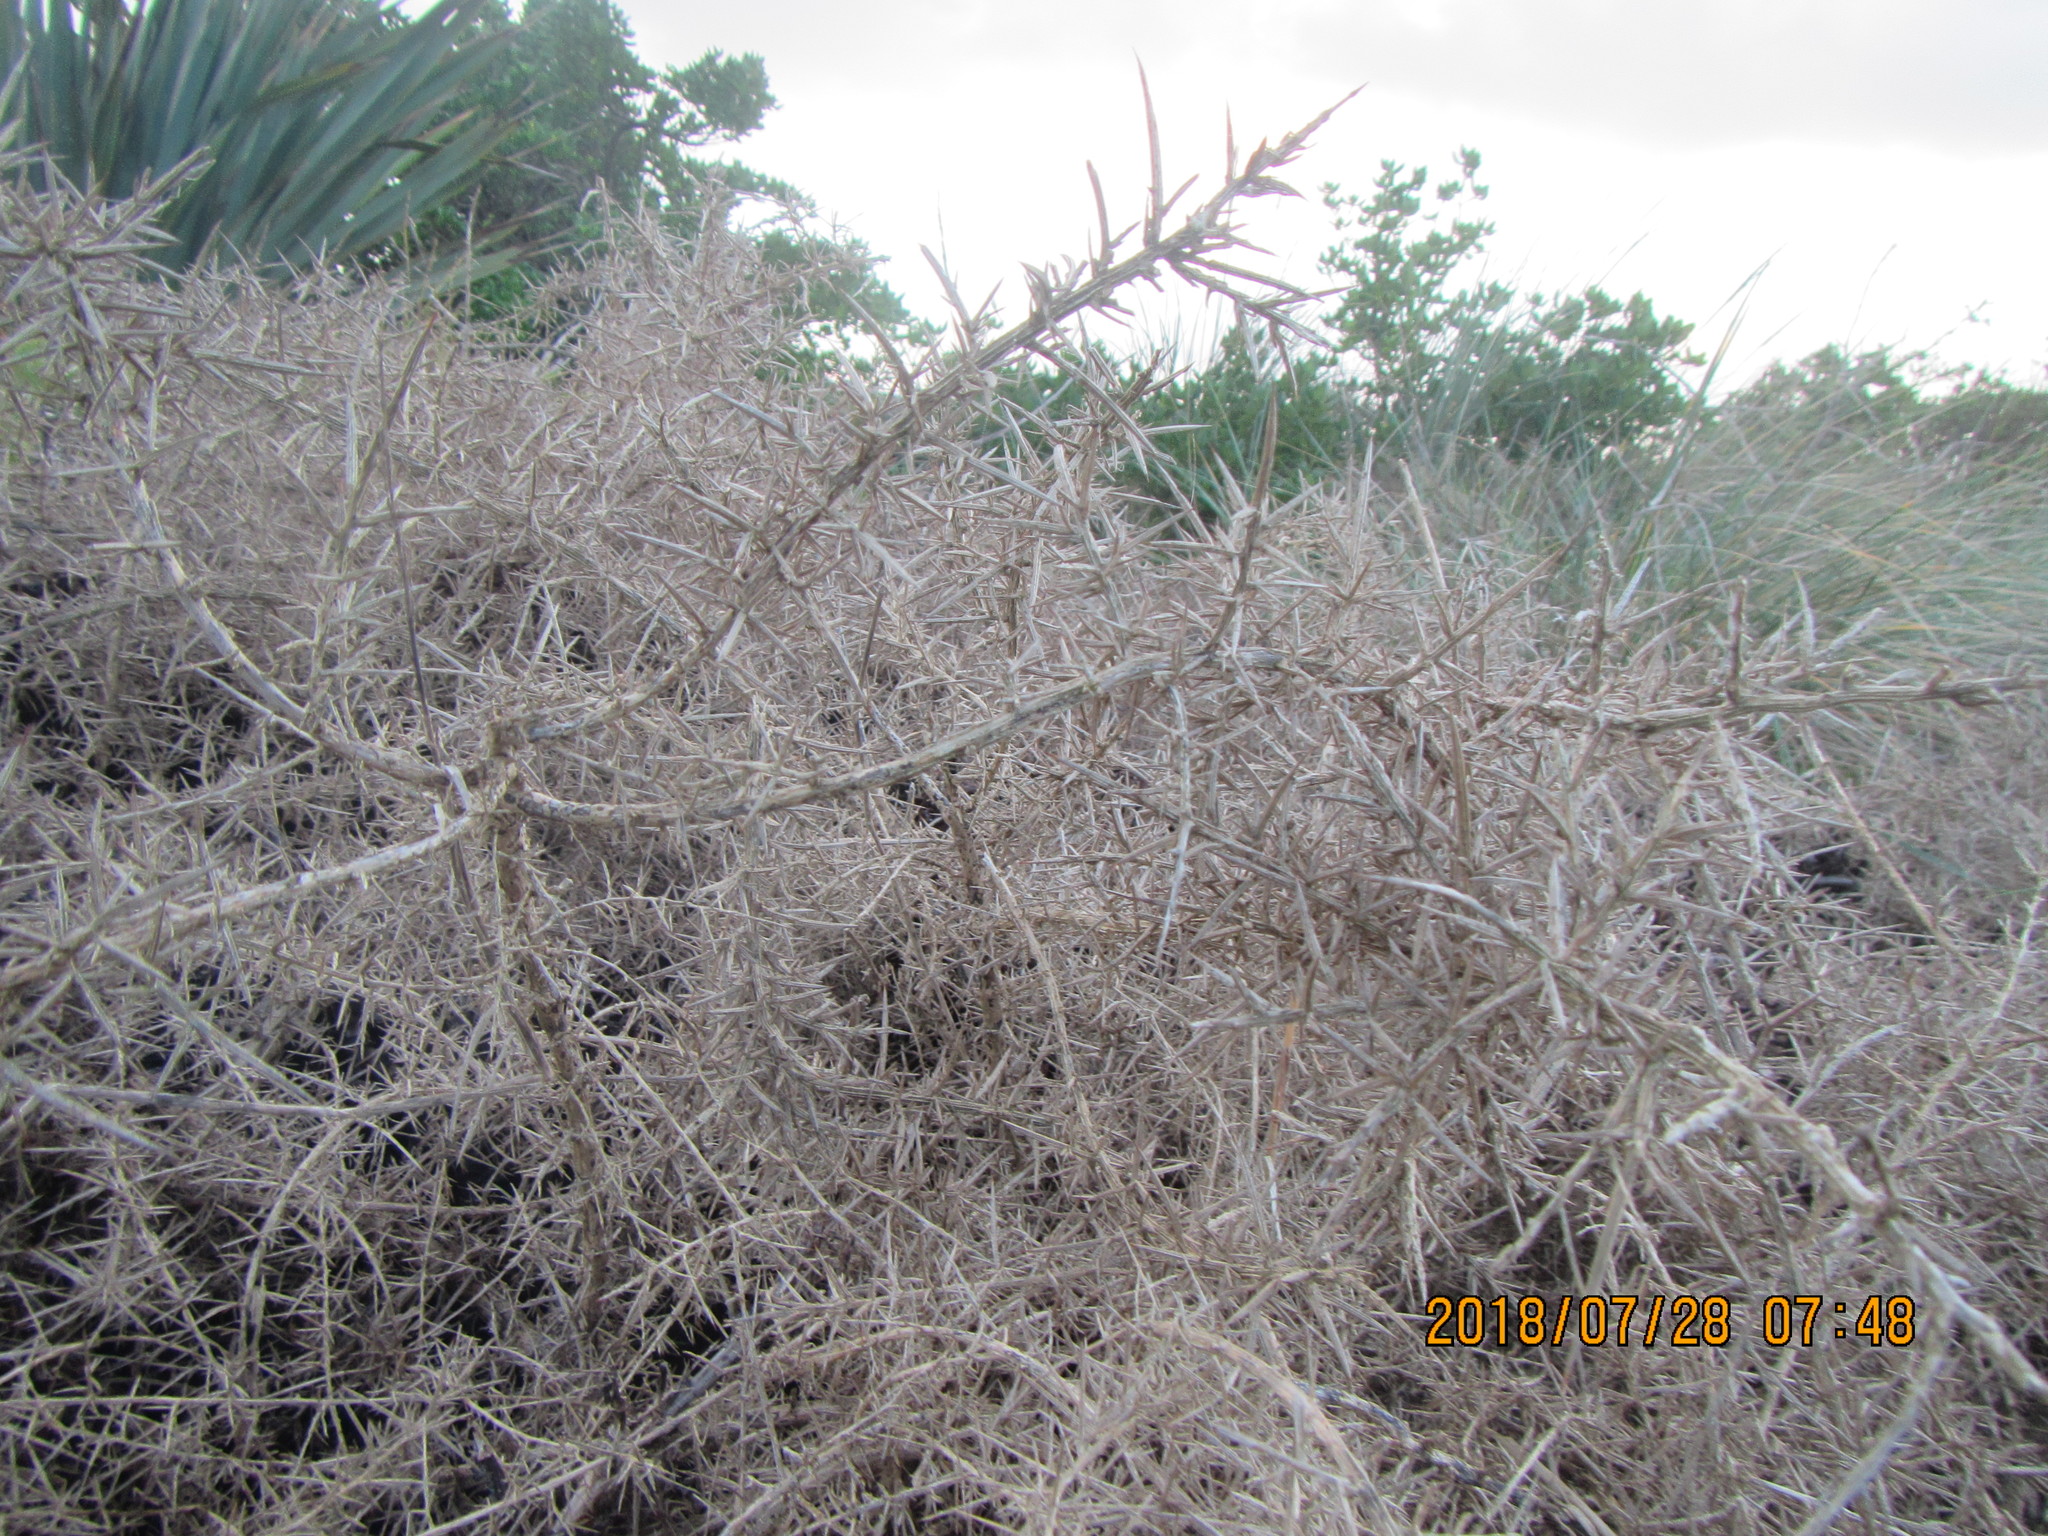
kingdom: Plantae
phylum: Tracheophyta
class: Magnoliopsida
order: Fabales
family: Fabaceae
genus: Ulex
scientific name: Ulex europaeus
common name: Common gorse
